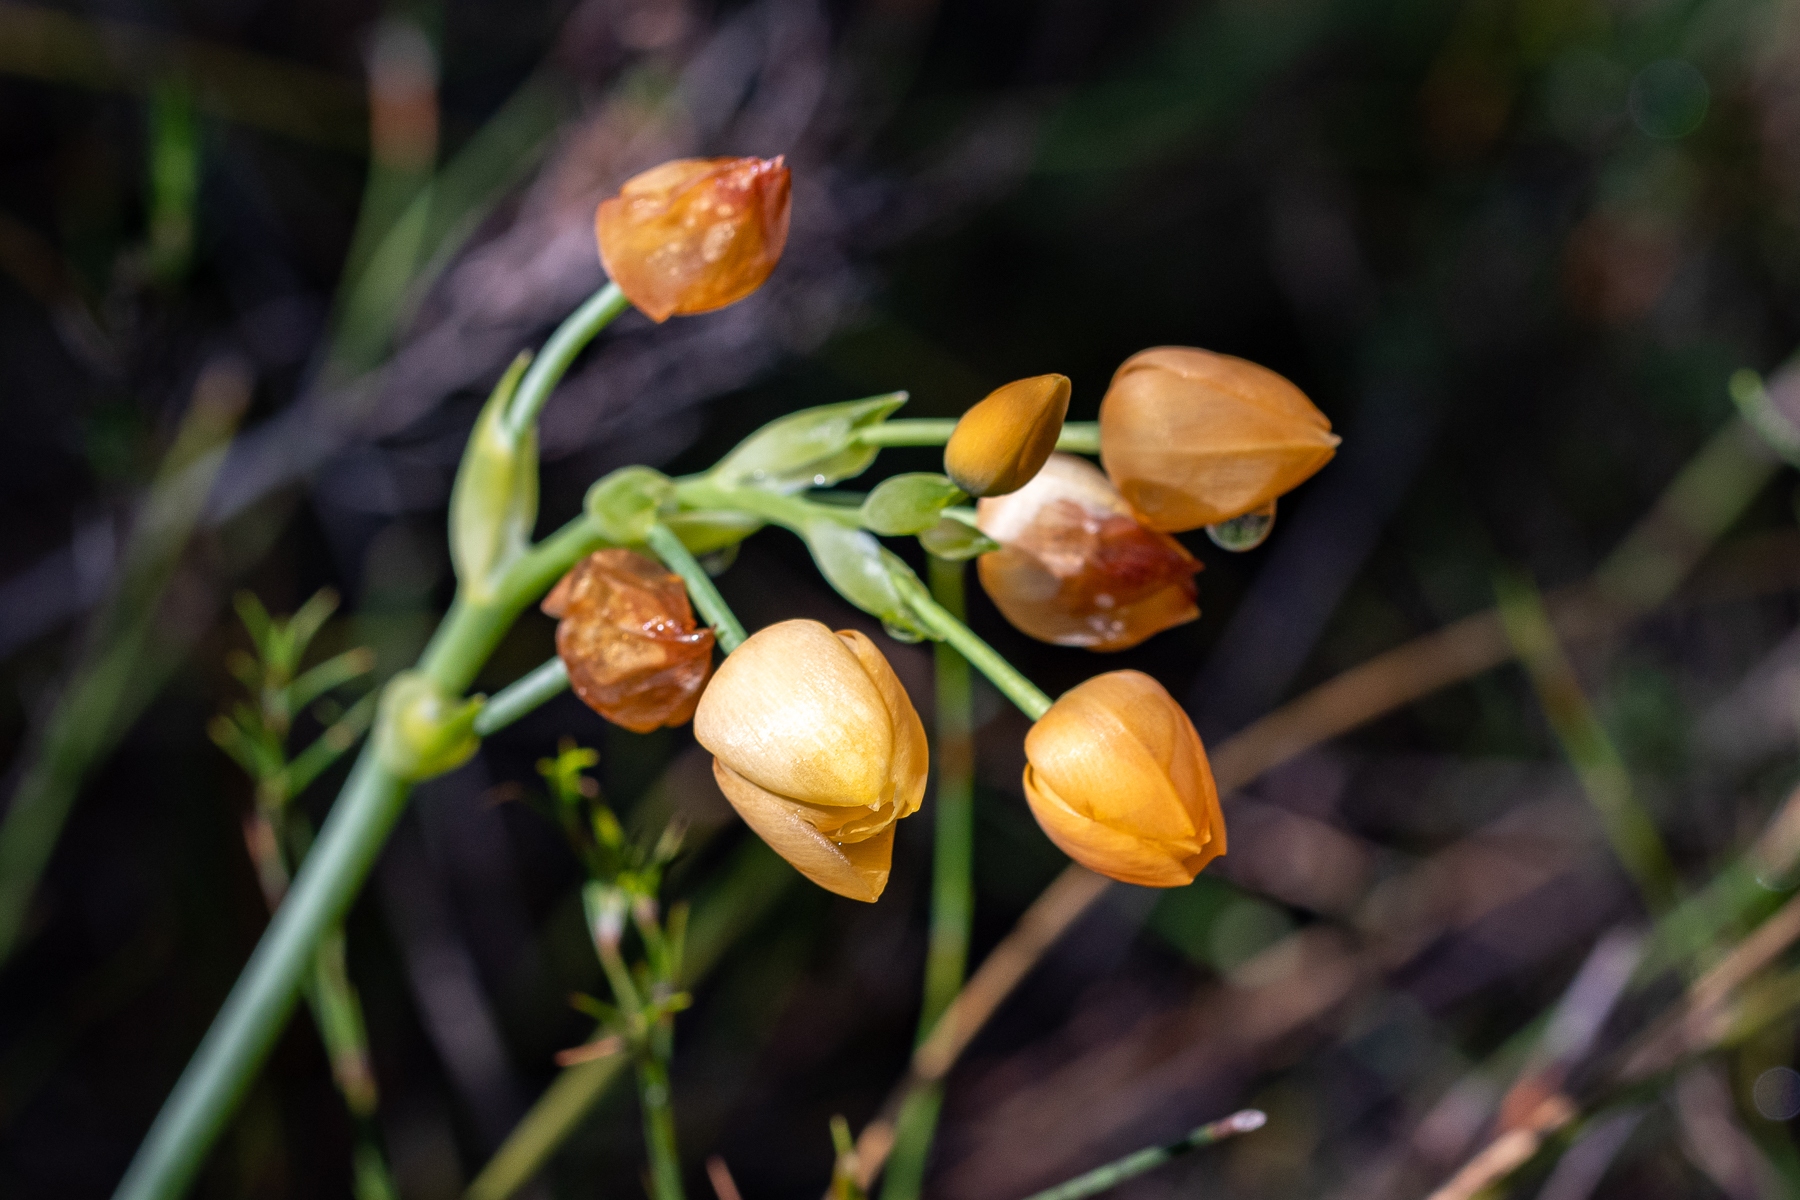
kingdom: Plantae
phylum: Tracheophyta
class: Liliopsida
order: Asparagales
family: Asparagaceae
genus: Ornithogalum
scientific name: Ornithogalum dubium
